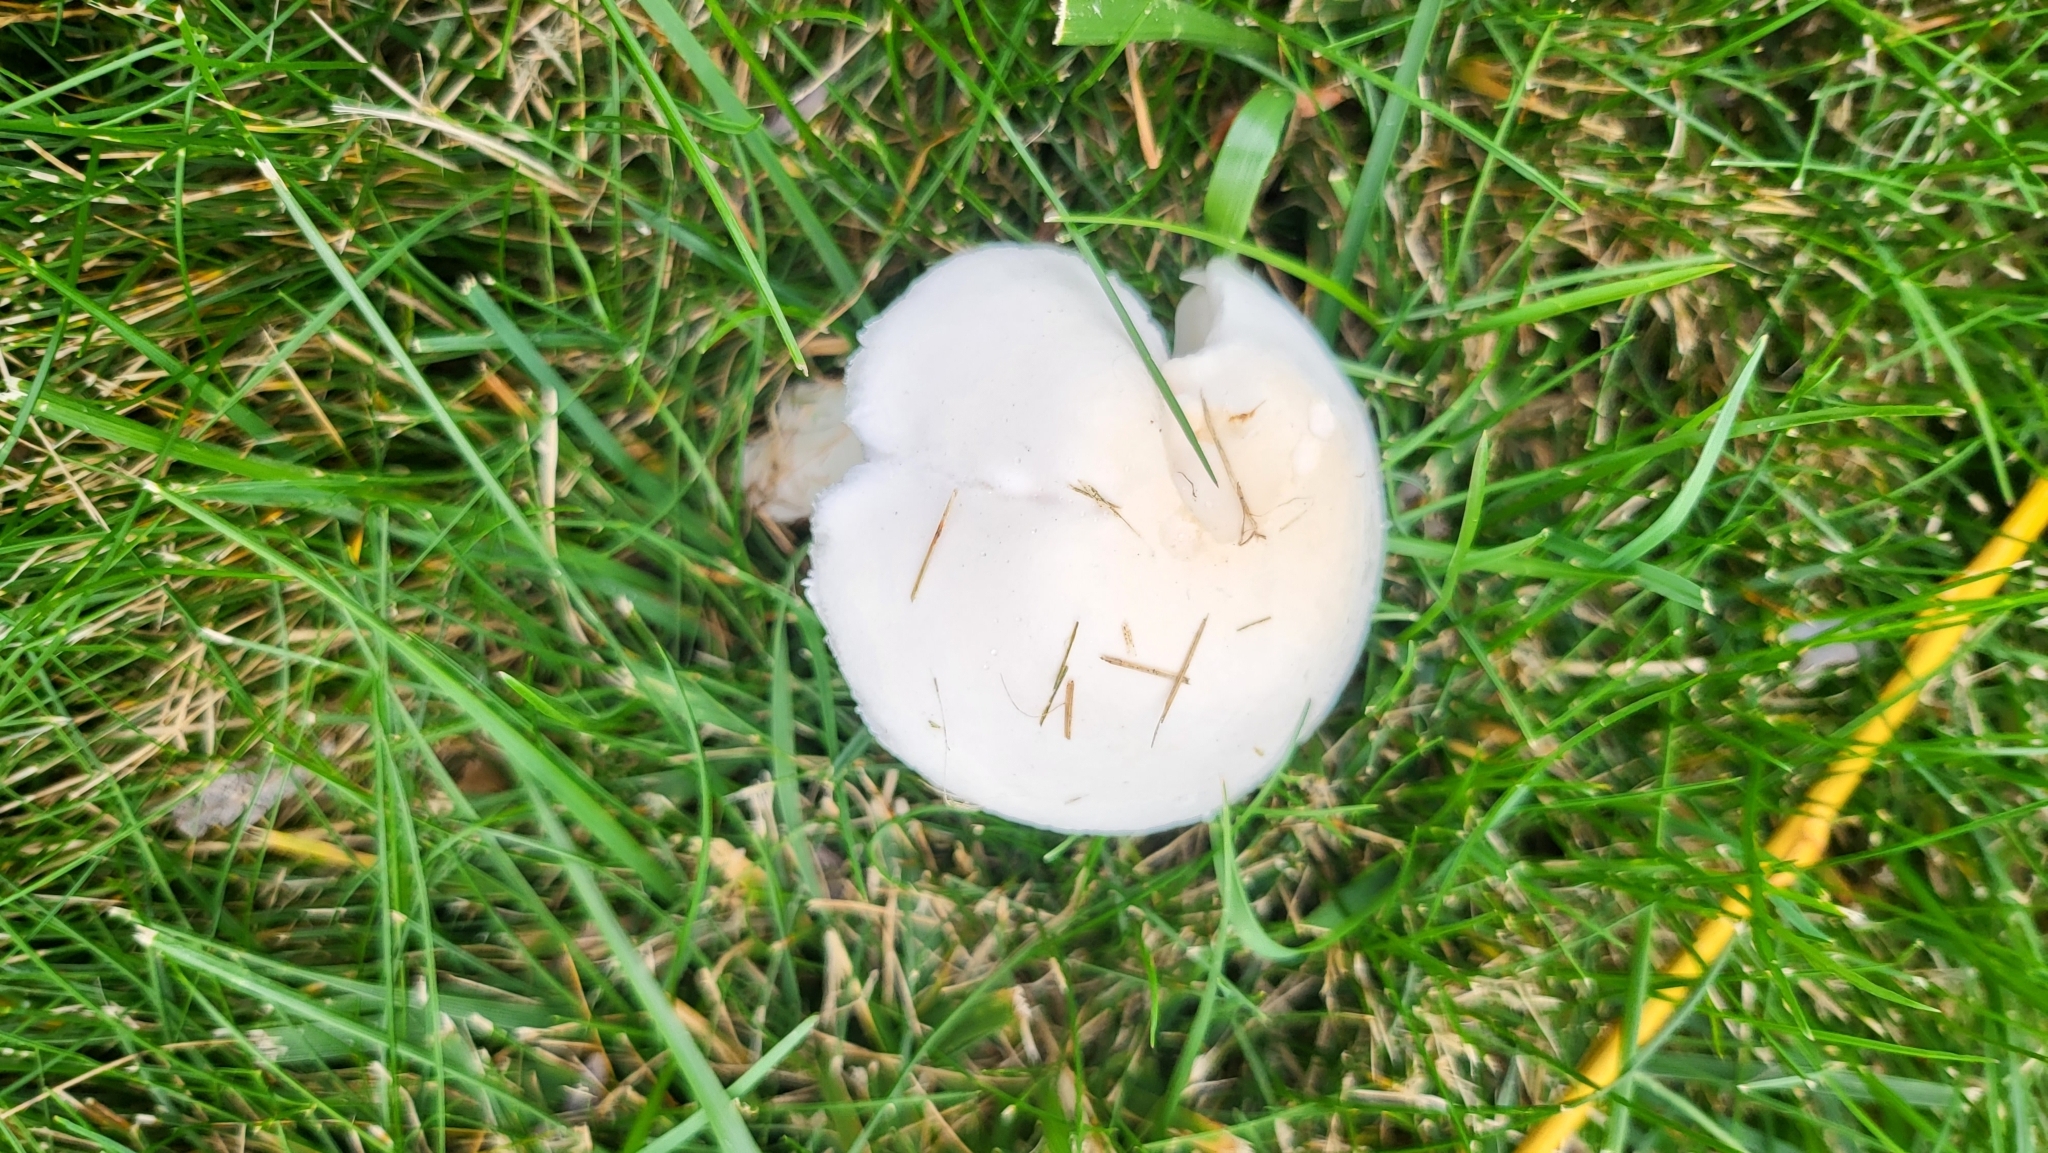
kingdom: Fungi
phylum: Basidiomycota
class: Agaricomycetes
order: Agaricales
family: Agaricaceae
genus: Leucoagaricus
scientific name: Leucoagaricus leucothites
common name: White dapperling
